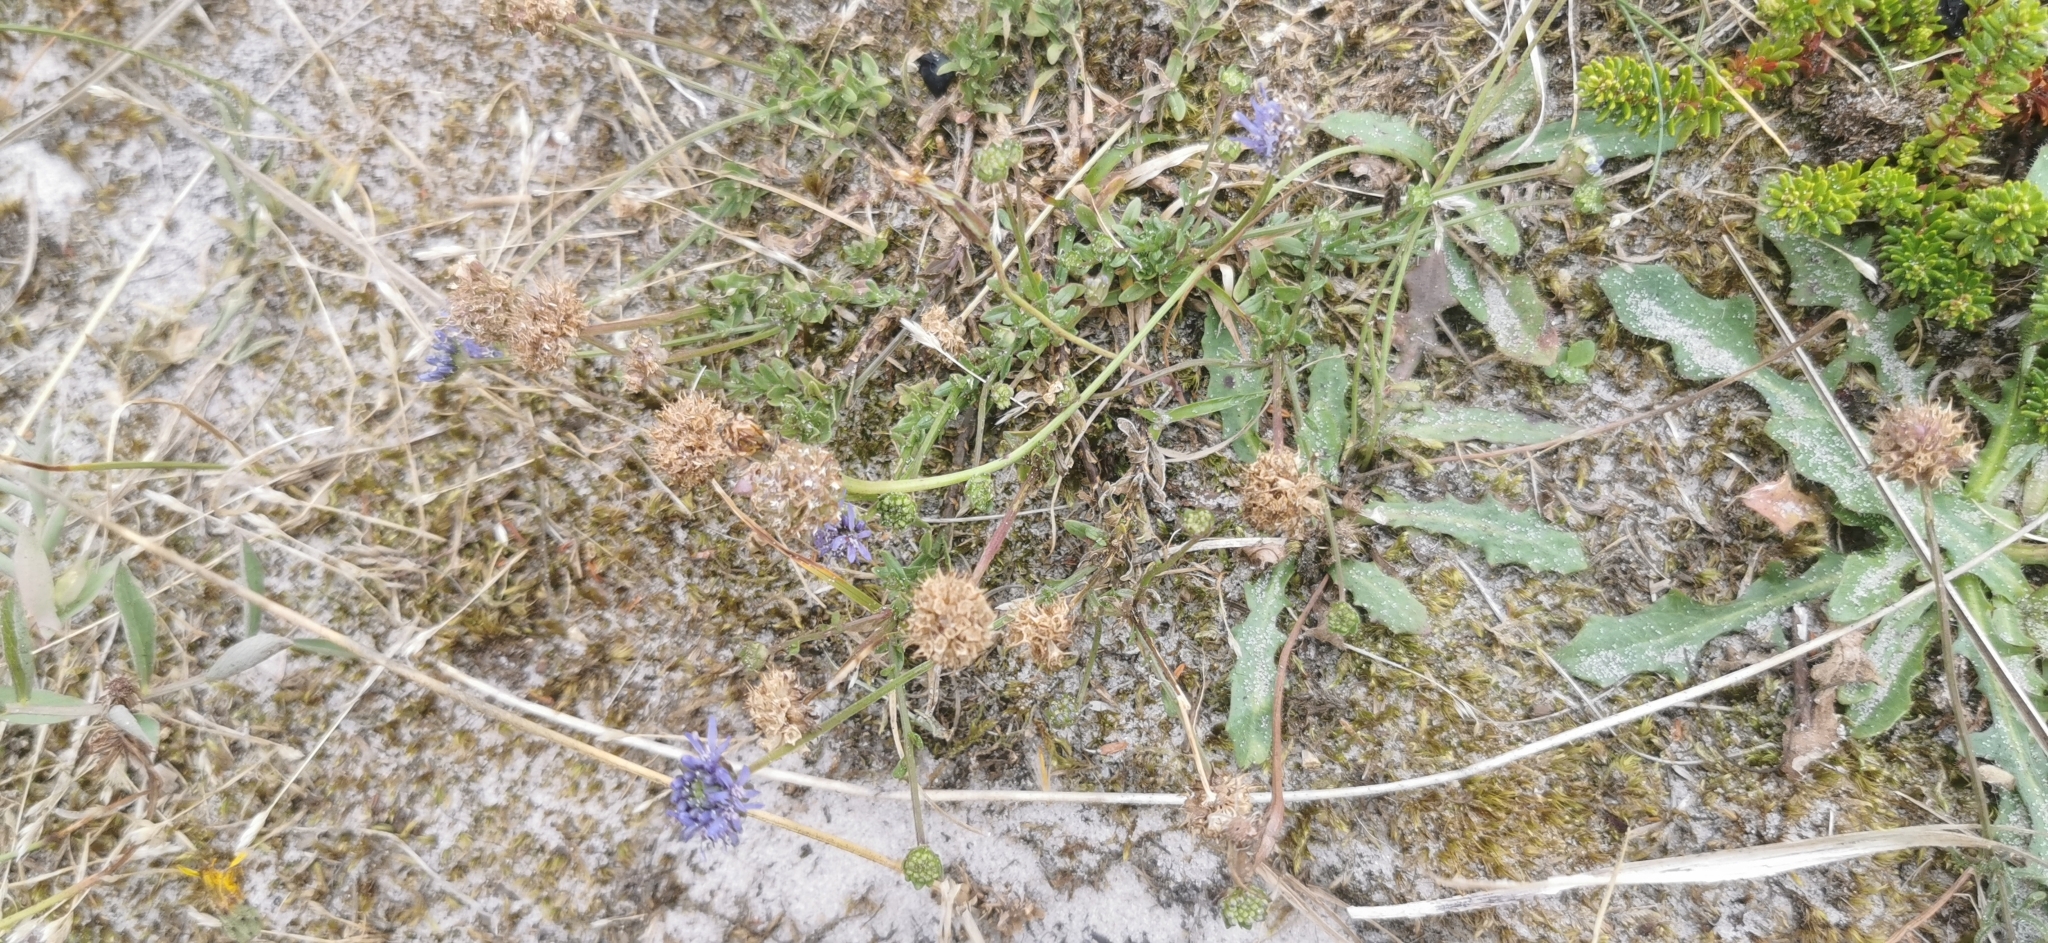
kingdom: Plantae
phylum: Tracheophyta
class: Magnoliopsida
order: Asterales
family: Campanulaceae
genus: Jasione
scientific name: Jasione montana
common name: Sheep's-bit
